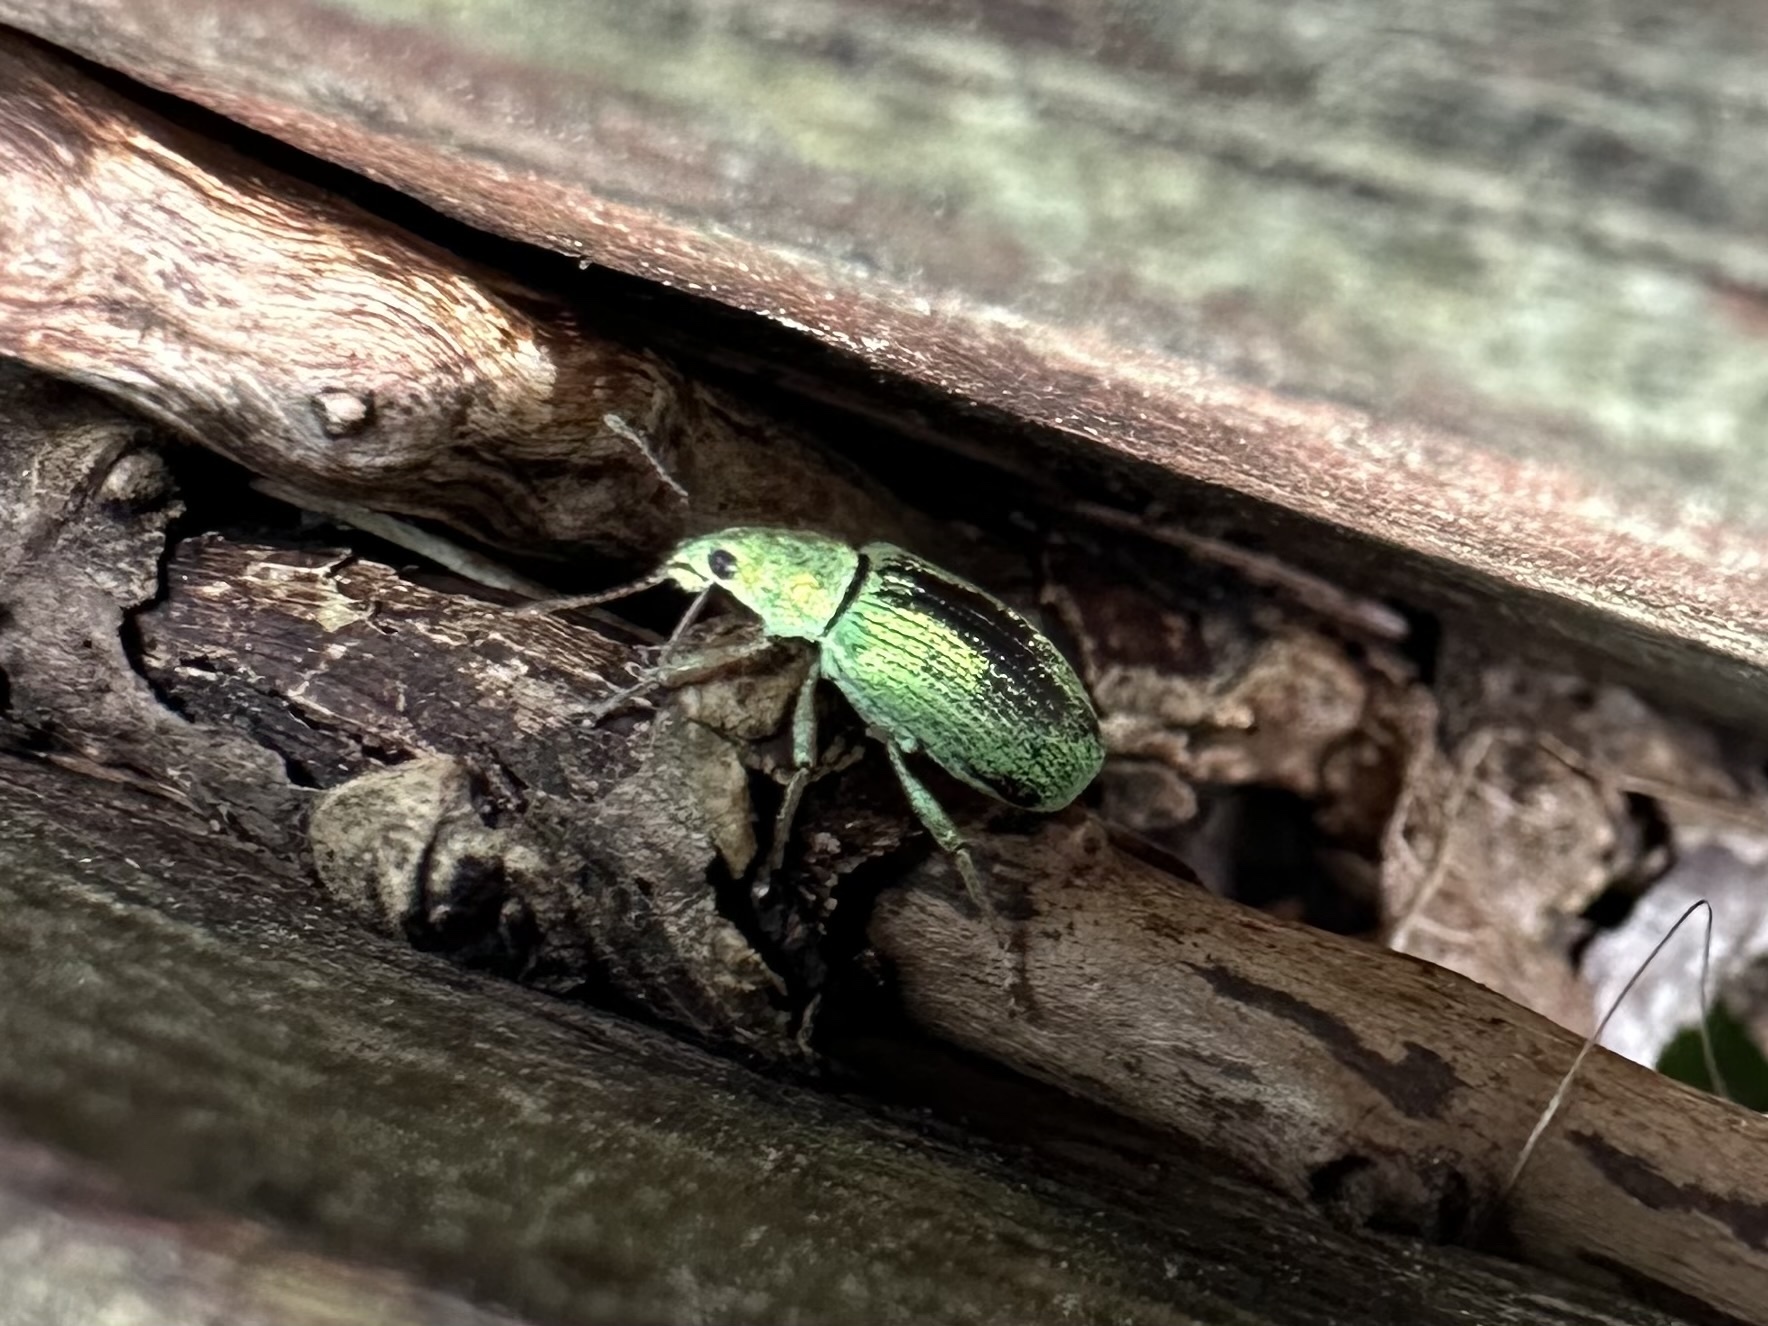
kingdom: Animalia
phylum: Arthropoda
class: Insecta
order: Coleoptera
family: Curculionidae
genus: Polydrusus
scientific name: Polydrusus formosus
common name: Weevil
